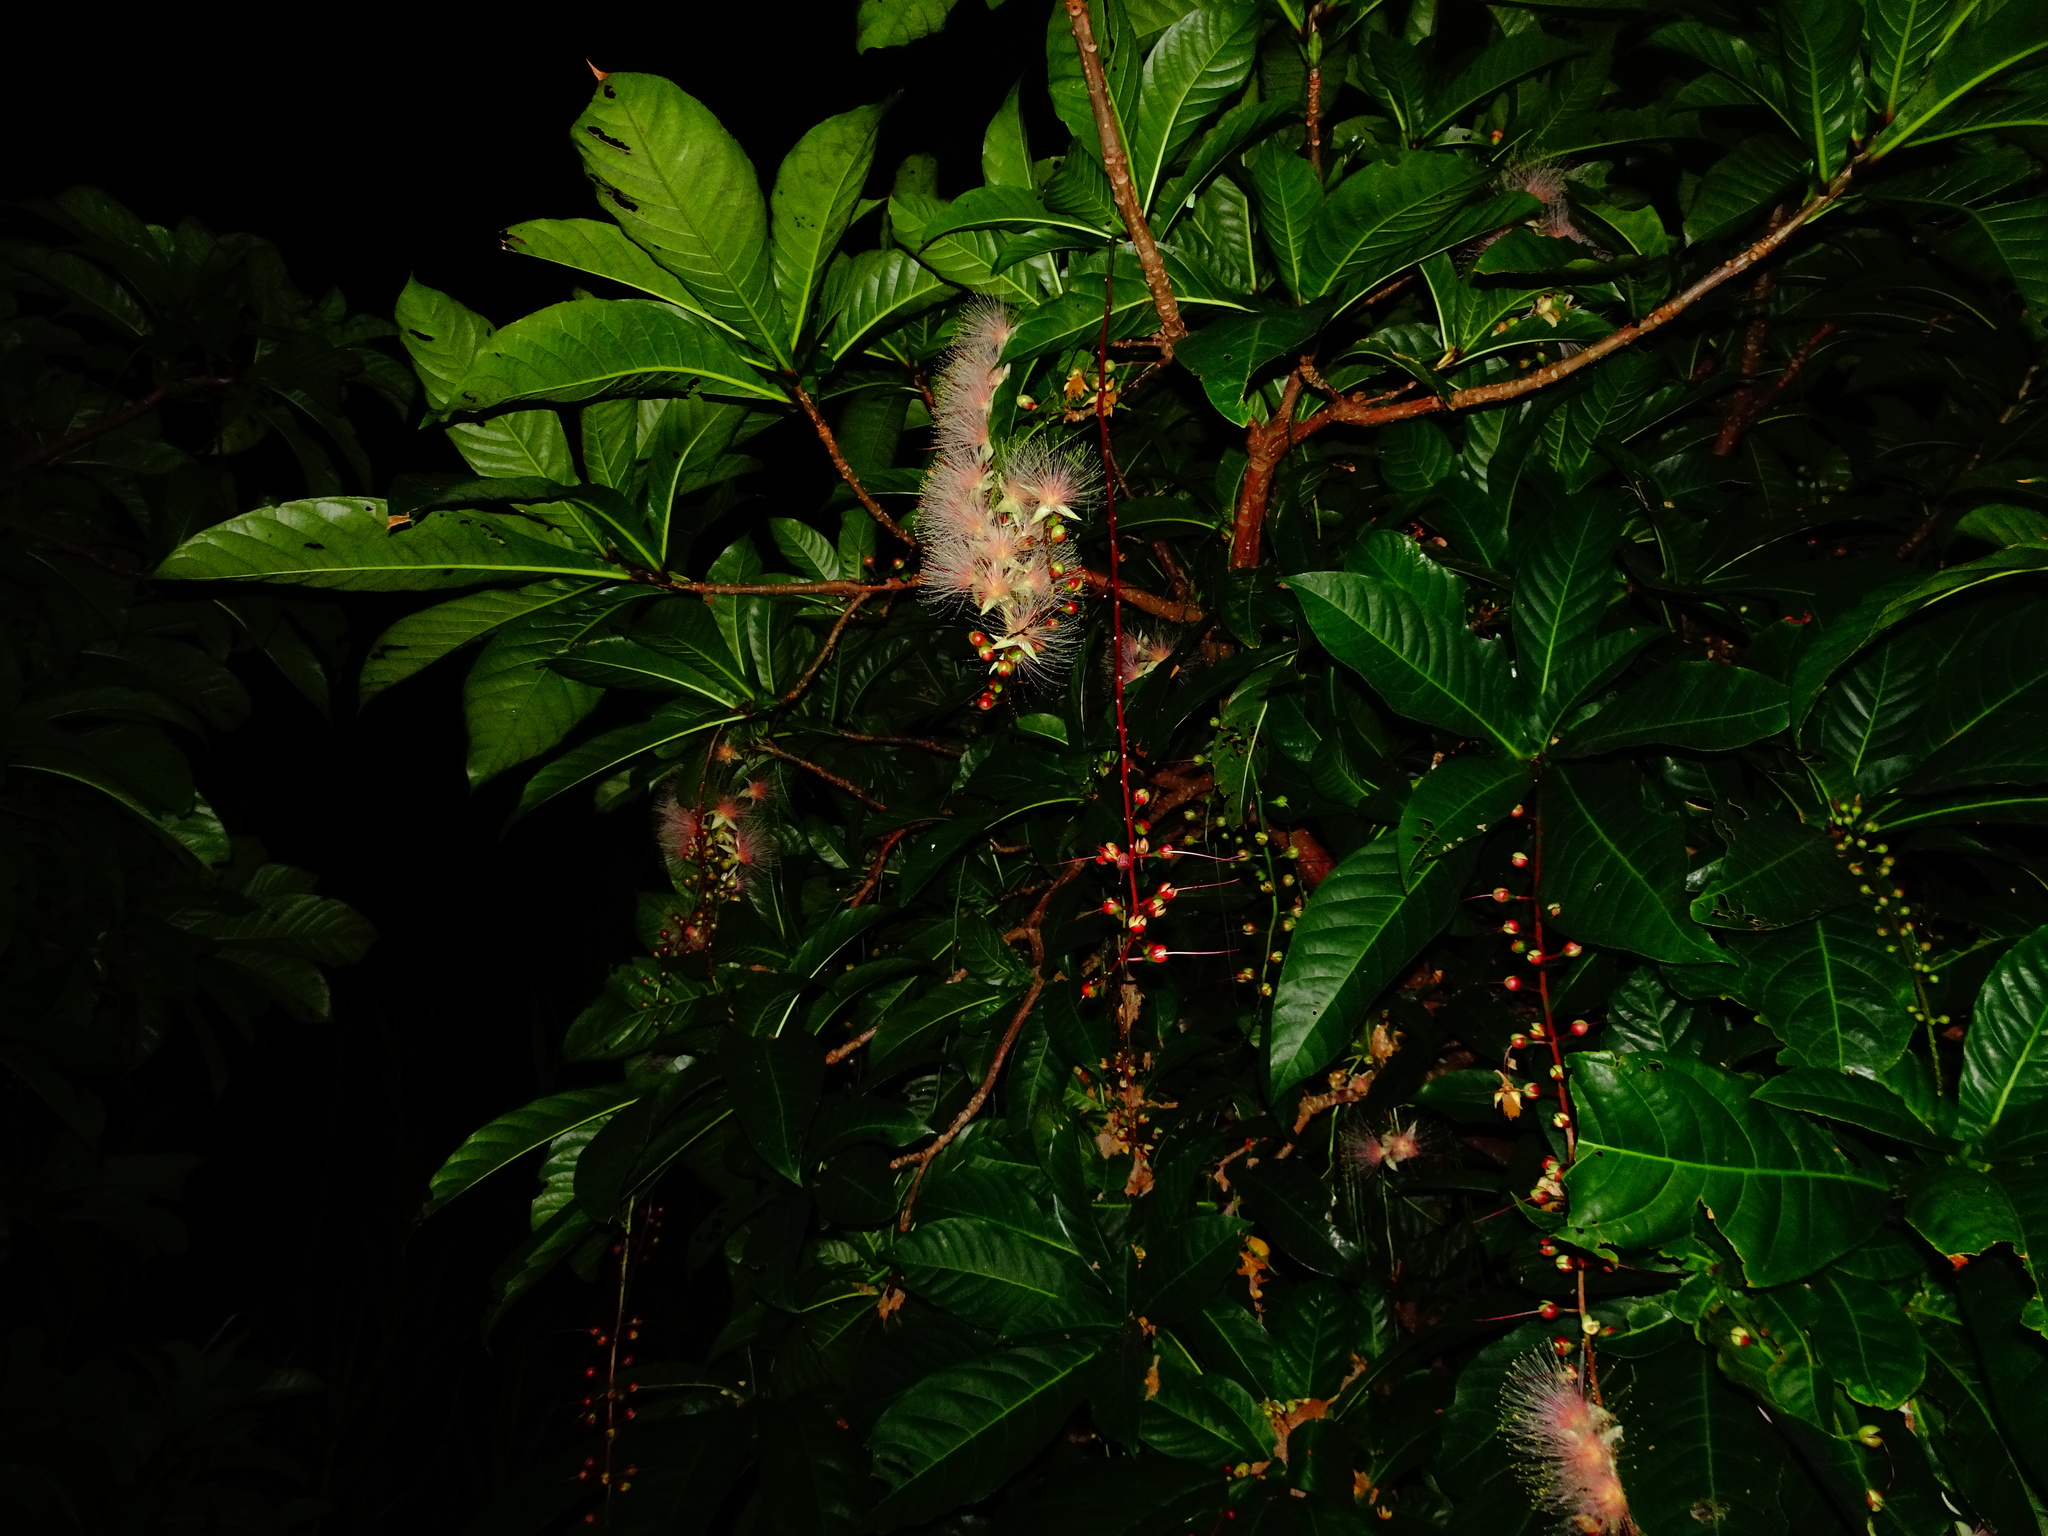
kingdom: Plantae
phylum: Tracheophyta
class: Magnoliopsida
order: Ericales
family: Lecythidaceae
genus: Barringtonia
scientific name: Barringtonia racemosa
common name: Brackwater mangrove
